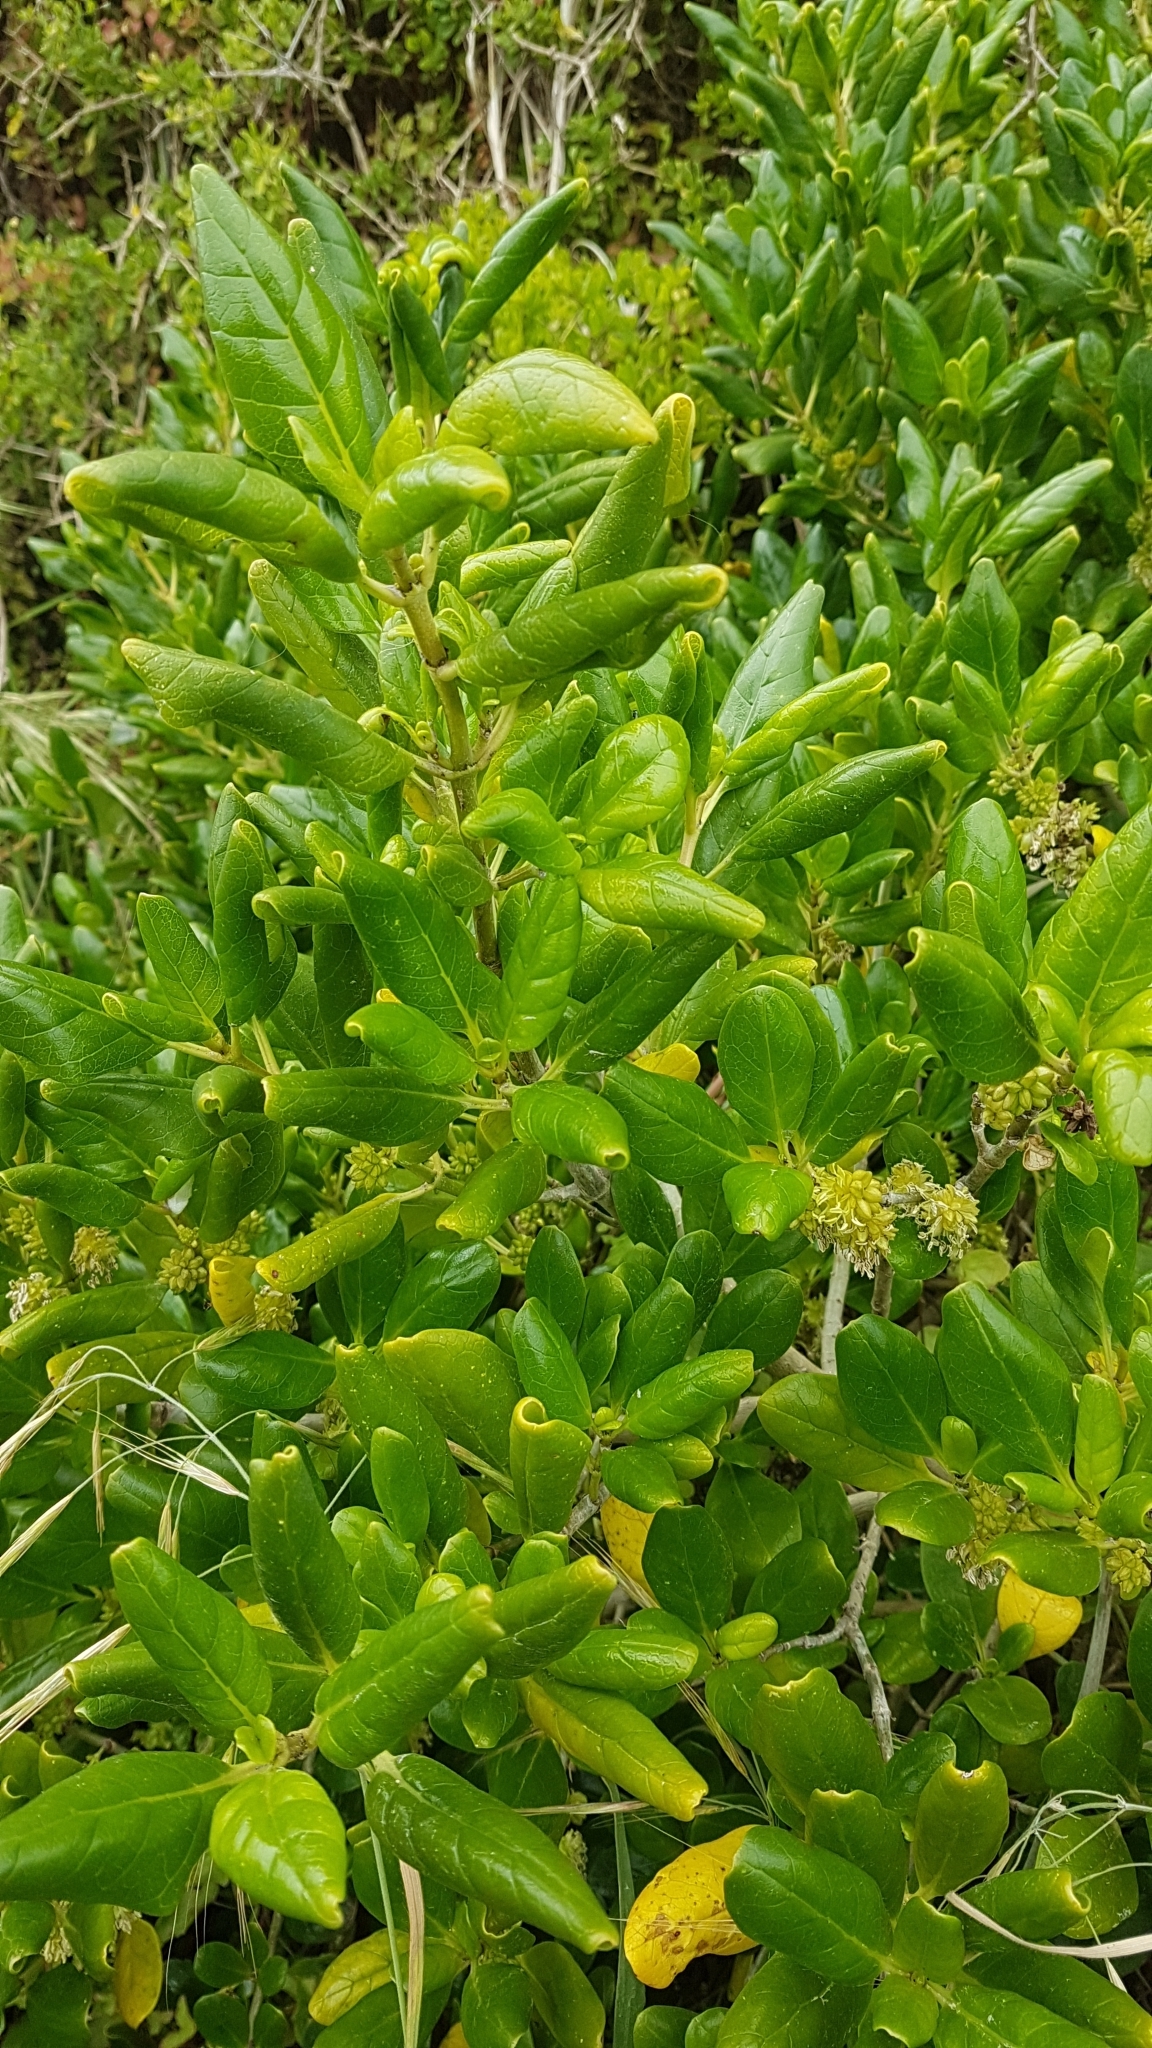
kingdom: Plantae
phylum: Tracheophyta
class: Magnoliopsida
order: Gentianales
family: Rubiaceae
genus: Coprosma
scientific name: Coprosma repens
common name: Tree bedstraw
